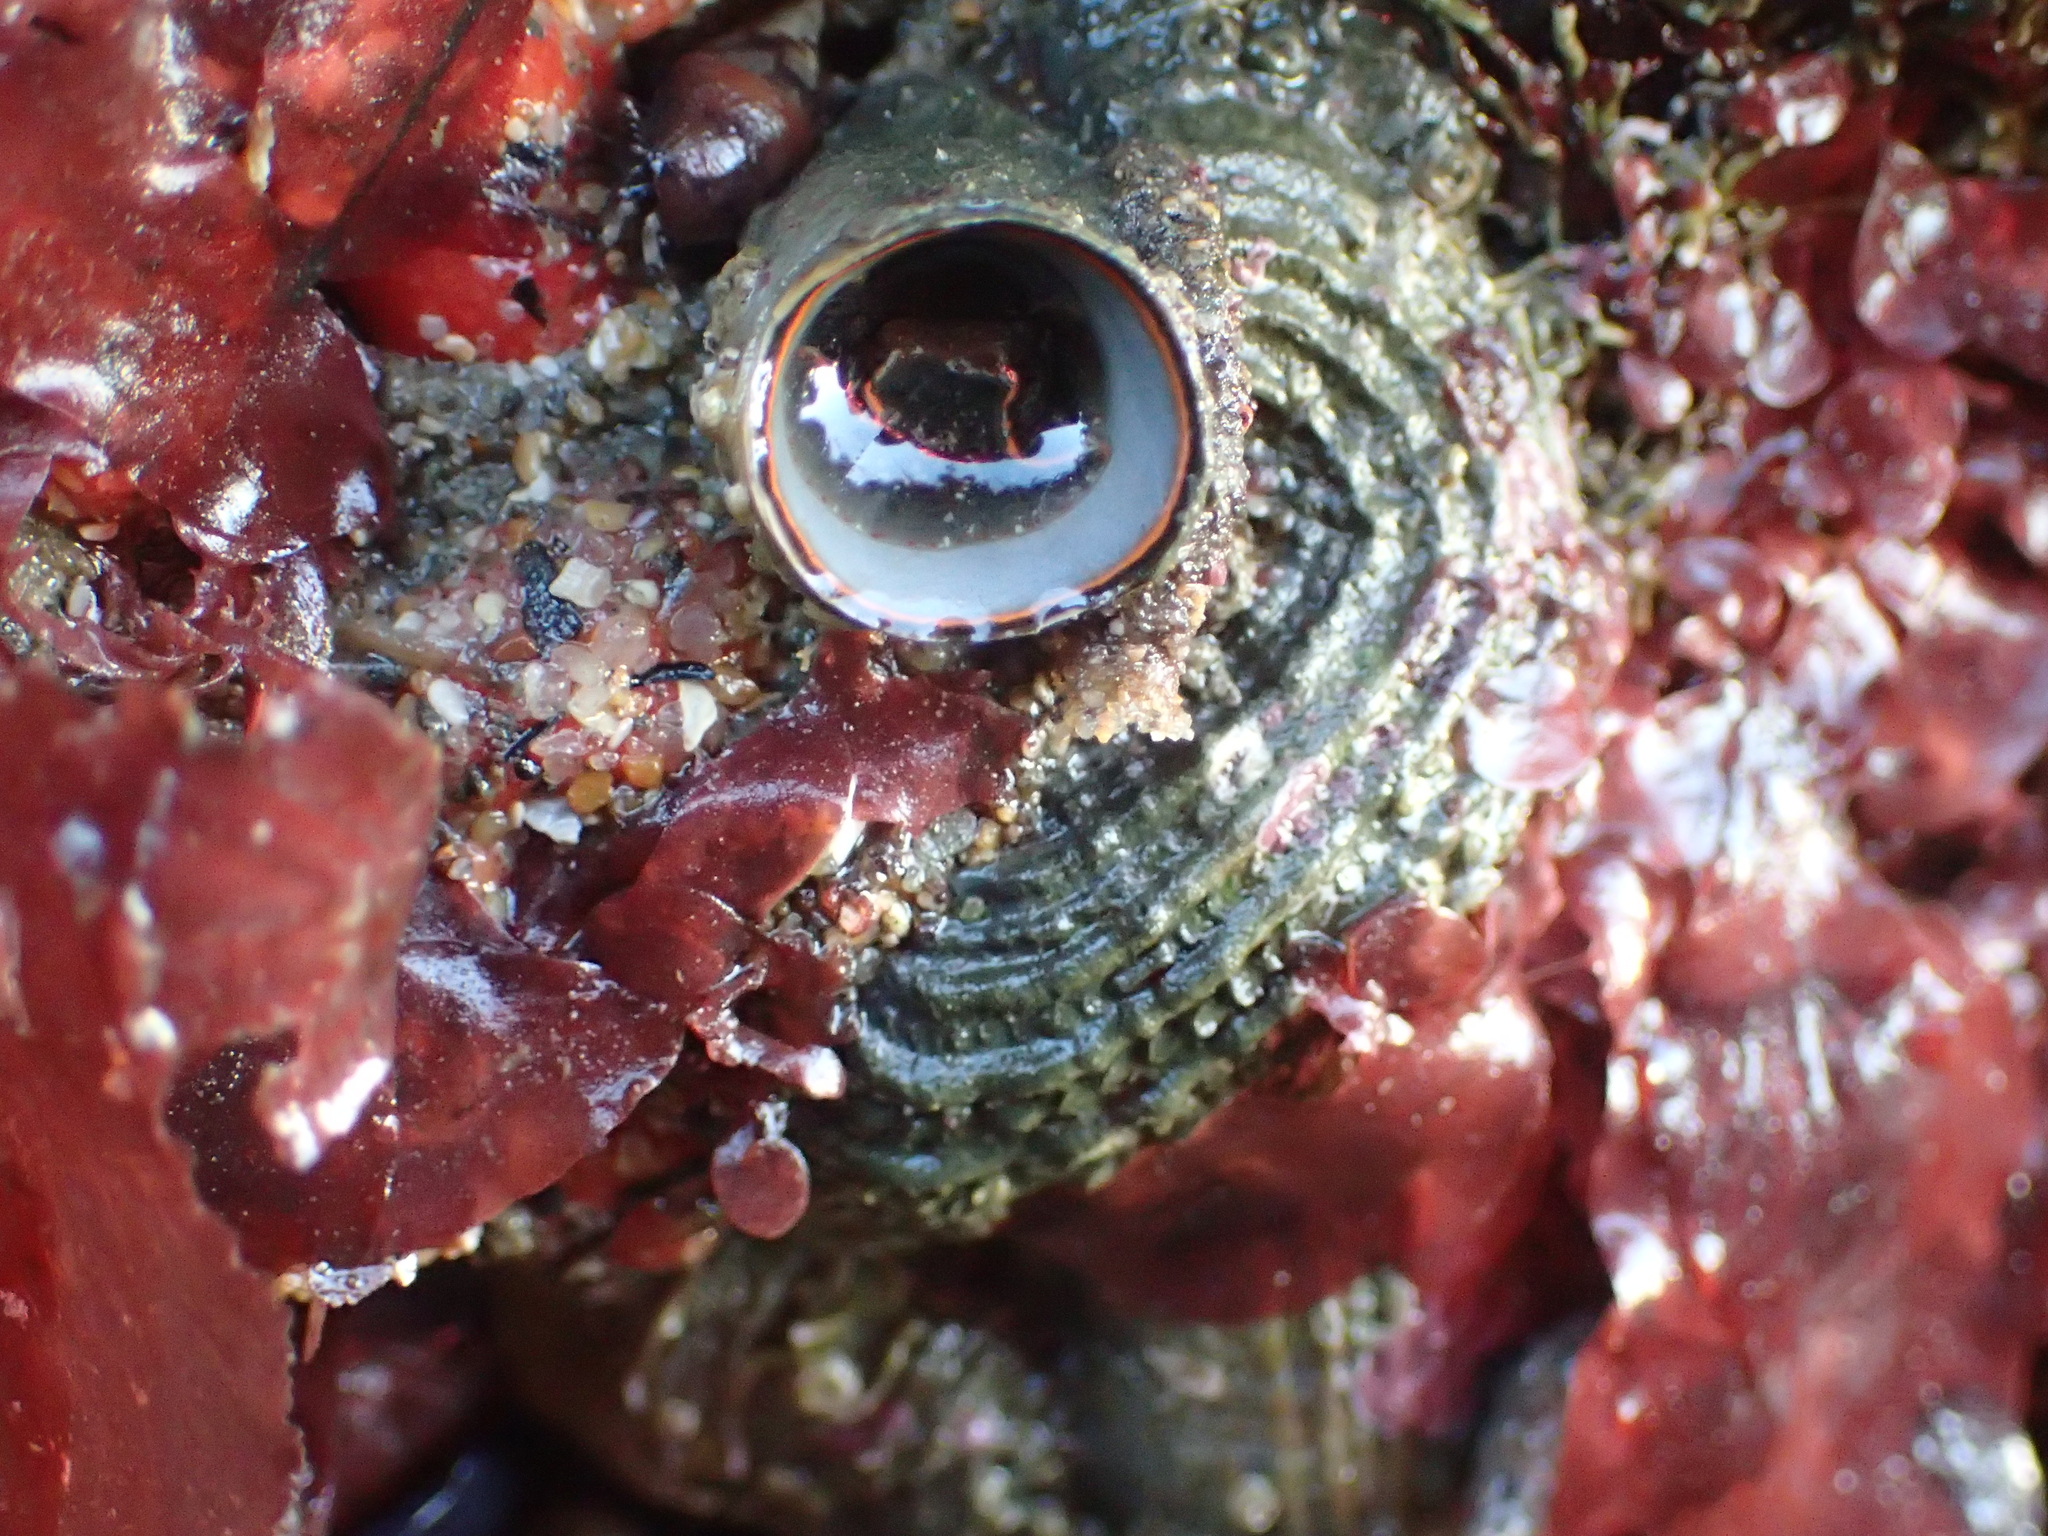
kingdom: Animalia
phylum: Mollusca
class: Gastropoda
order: Littorinimorpha
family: Vermetidae
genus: Thylacodes
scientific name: Thylacodes squamigerus
